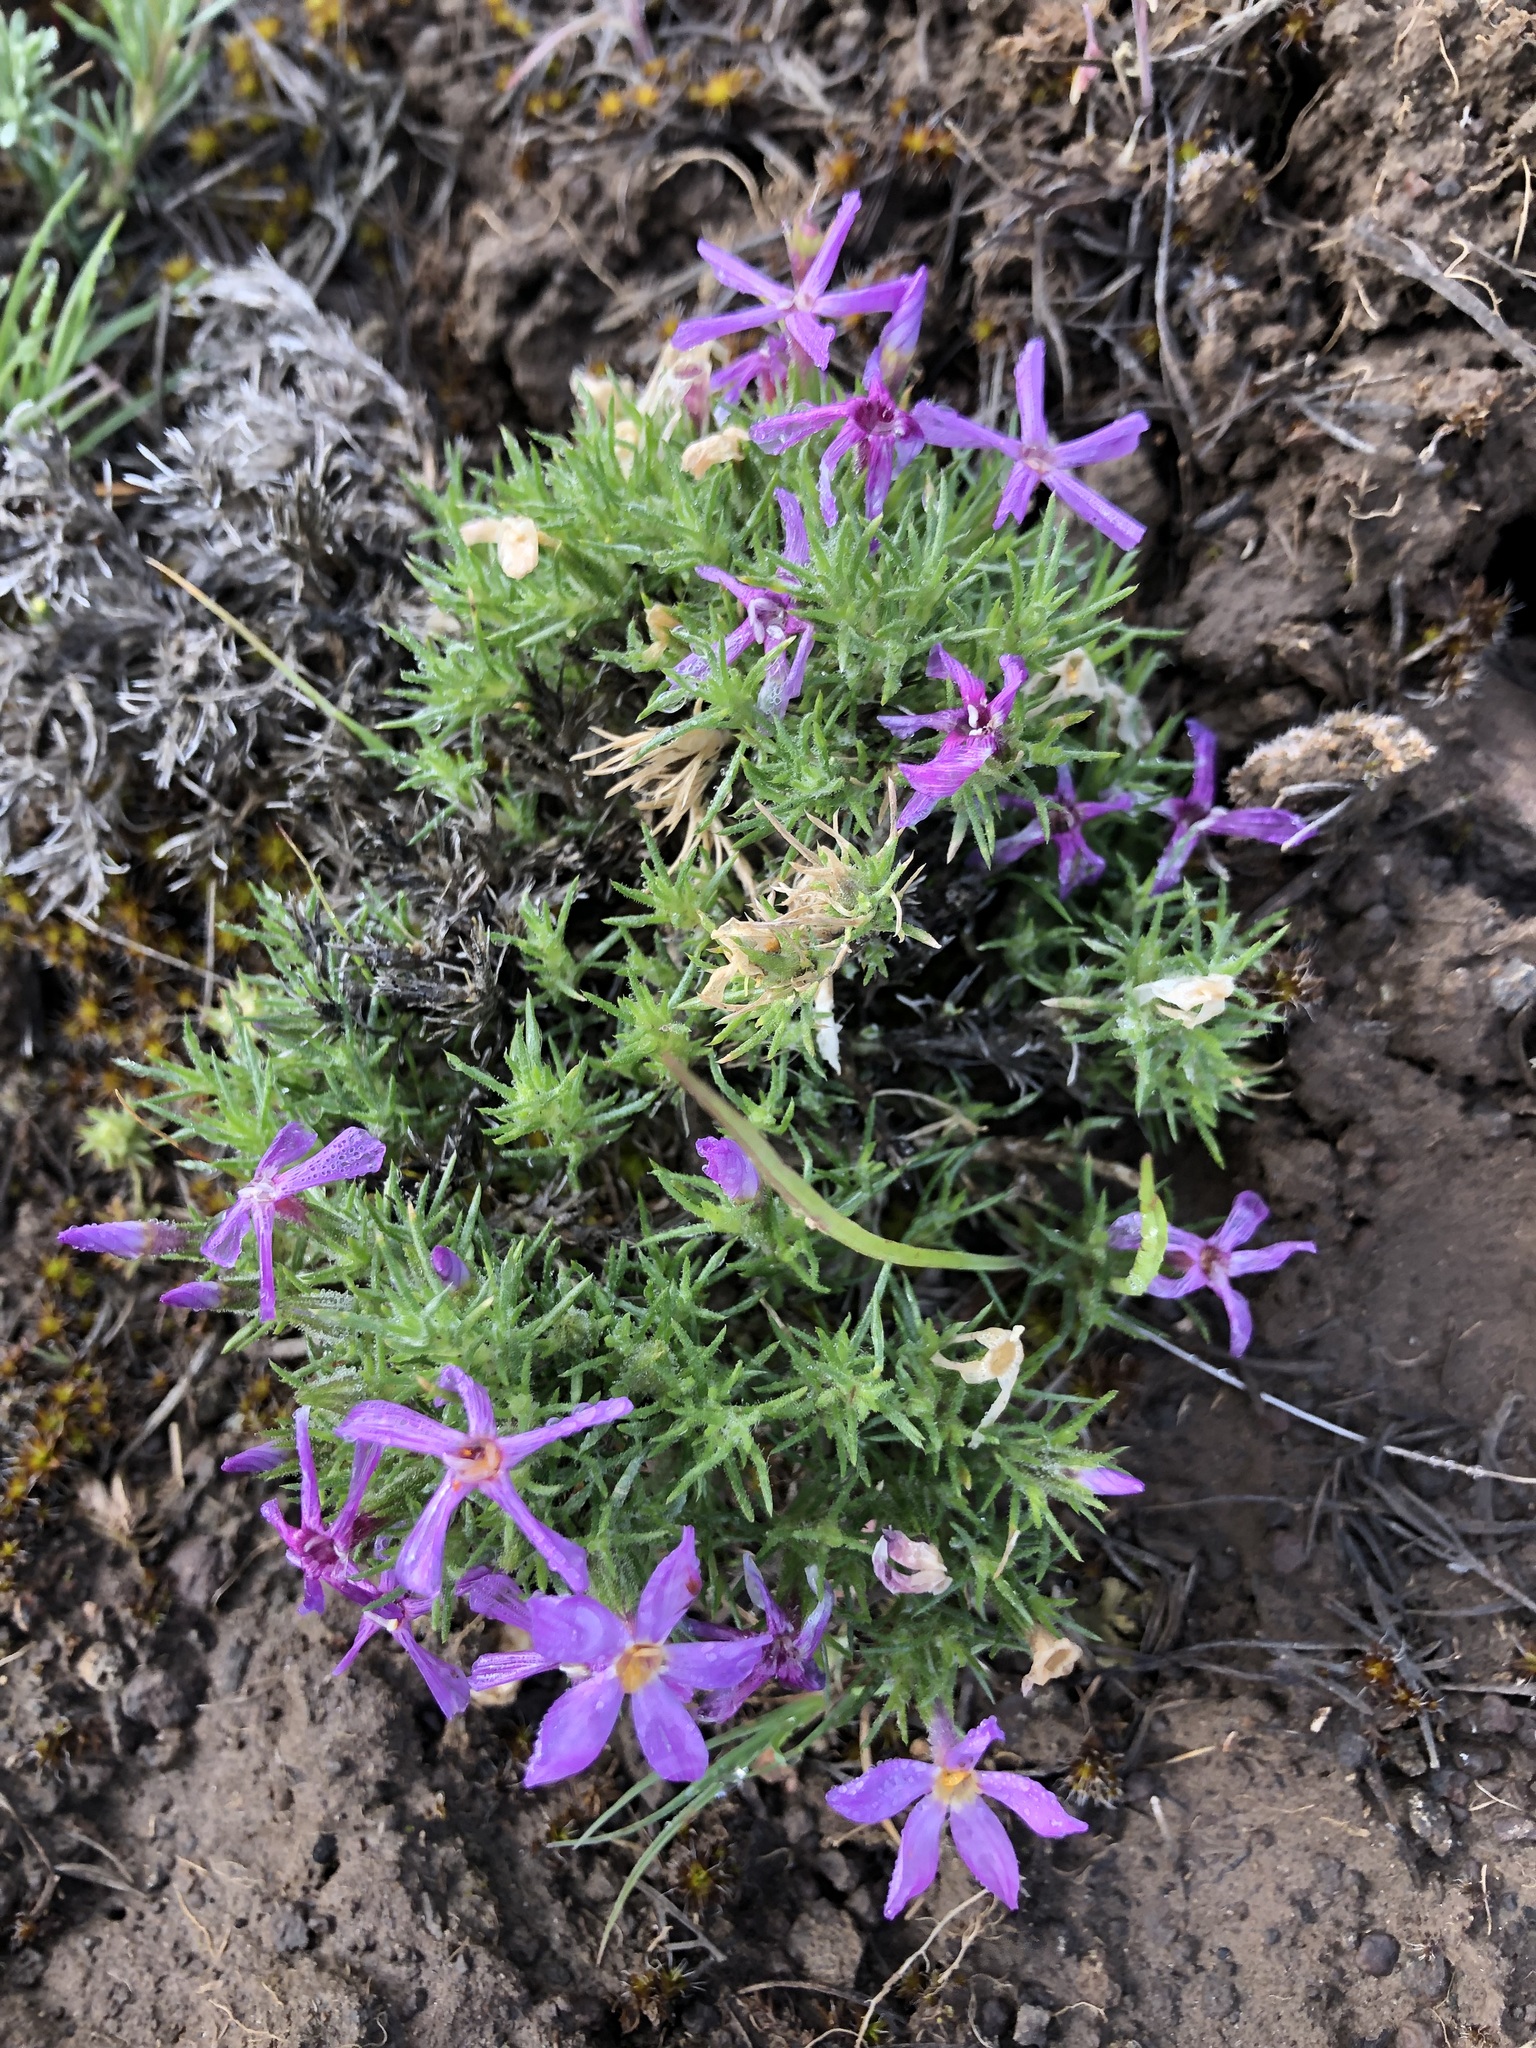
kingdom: Plantae
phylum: Tracheophyta
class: Magnoliopsida
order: Ericales
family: Polemoniaceae
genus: Phlox
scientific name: Phlox douglasii
